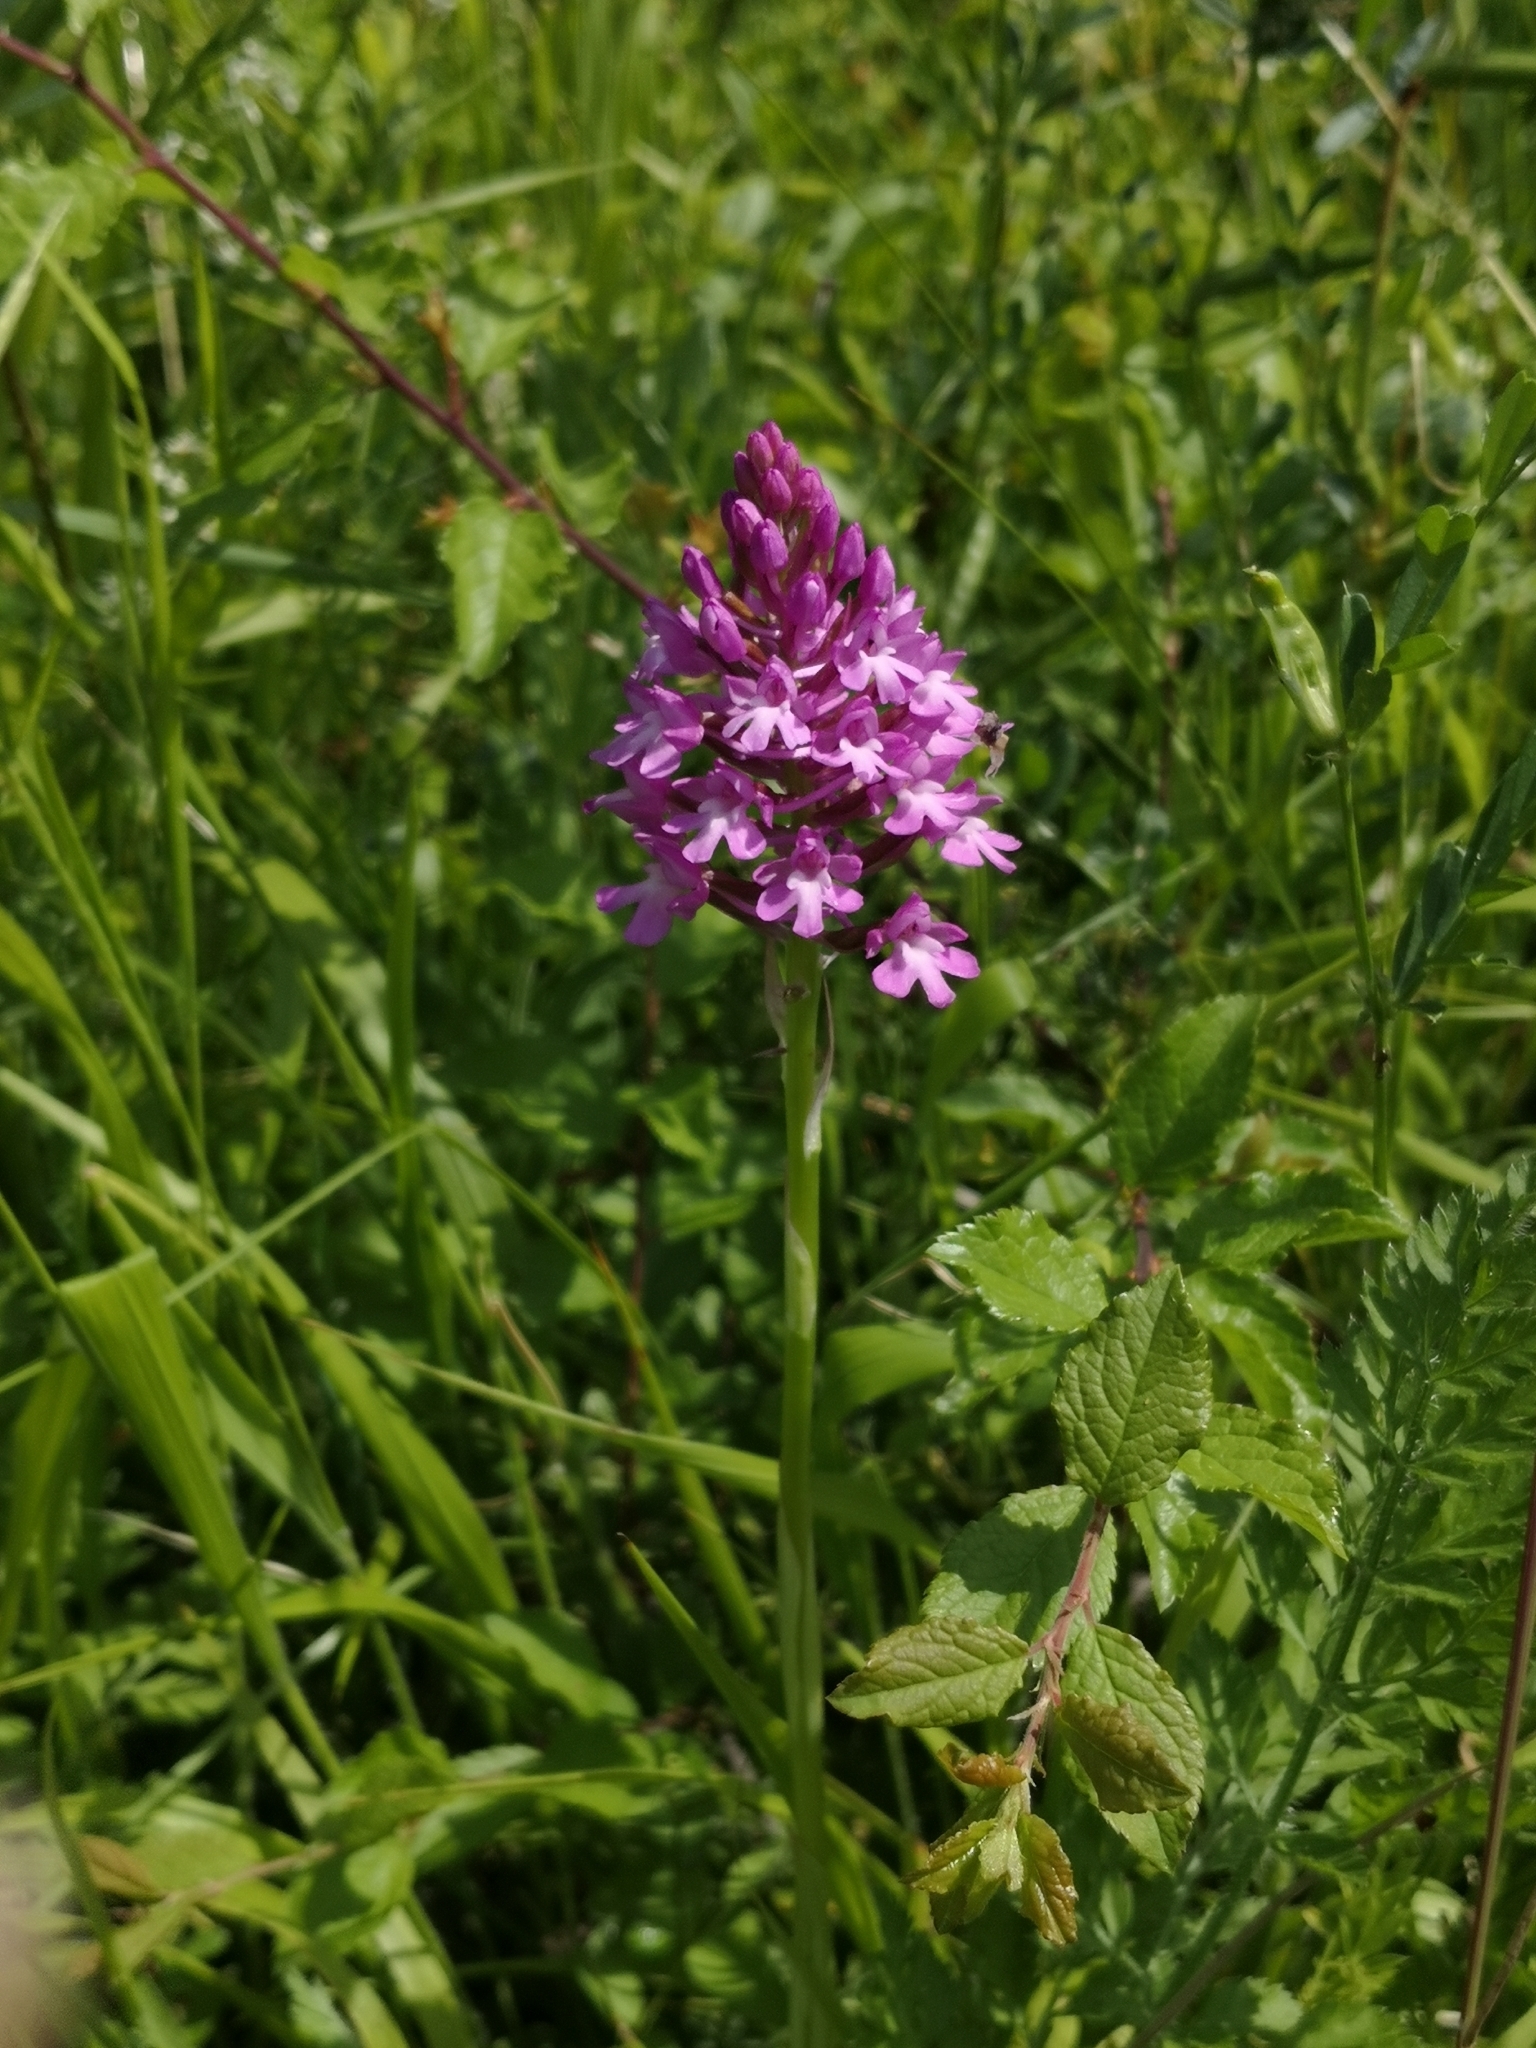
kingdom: Plantae
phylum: Tracheophyta
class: Liliopsida
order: Asparagales
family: Orchidaceae
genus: Anacamptis
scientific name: Anacamptis pyramidalis
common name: Pyramidal orchid
